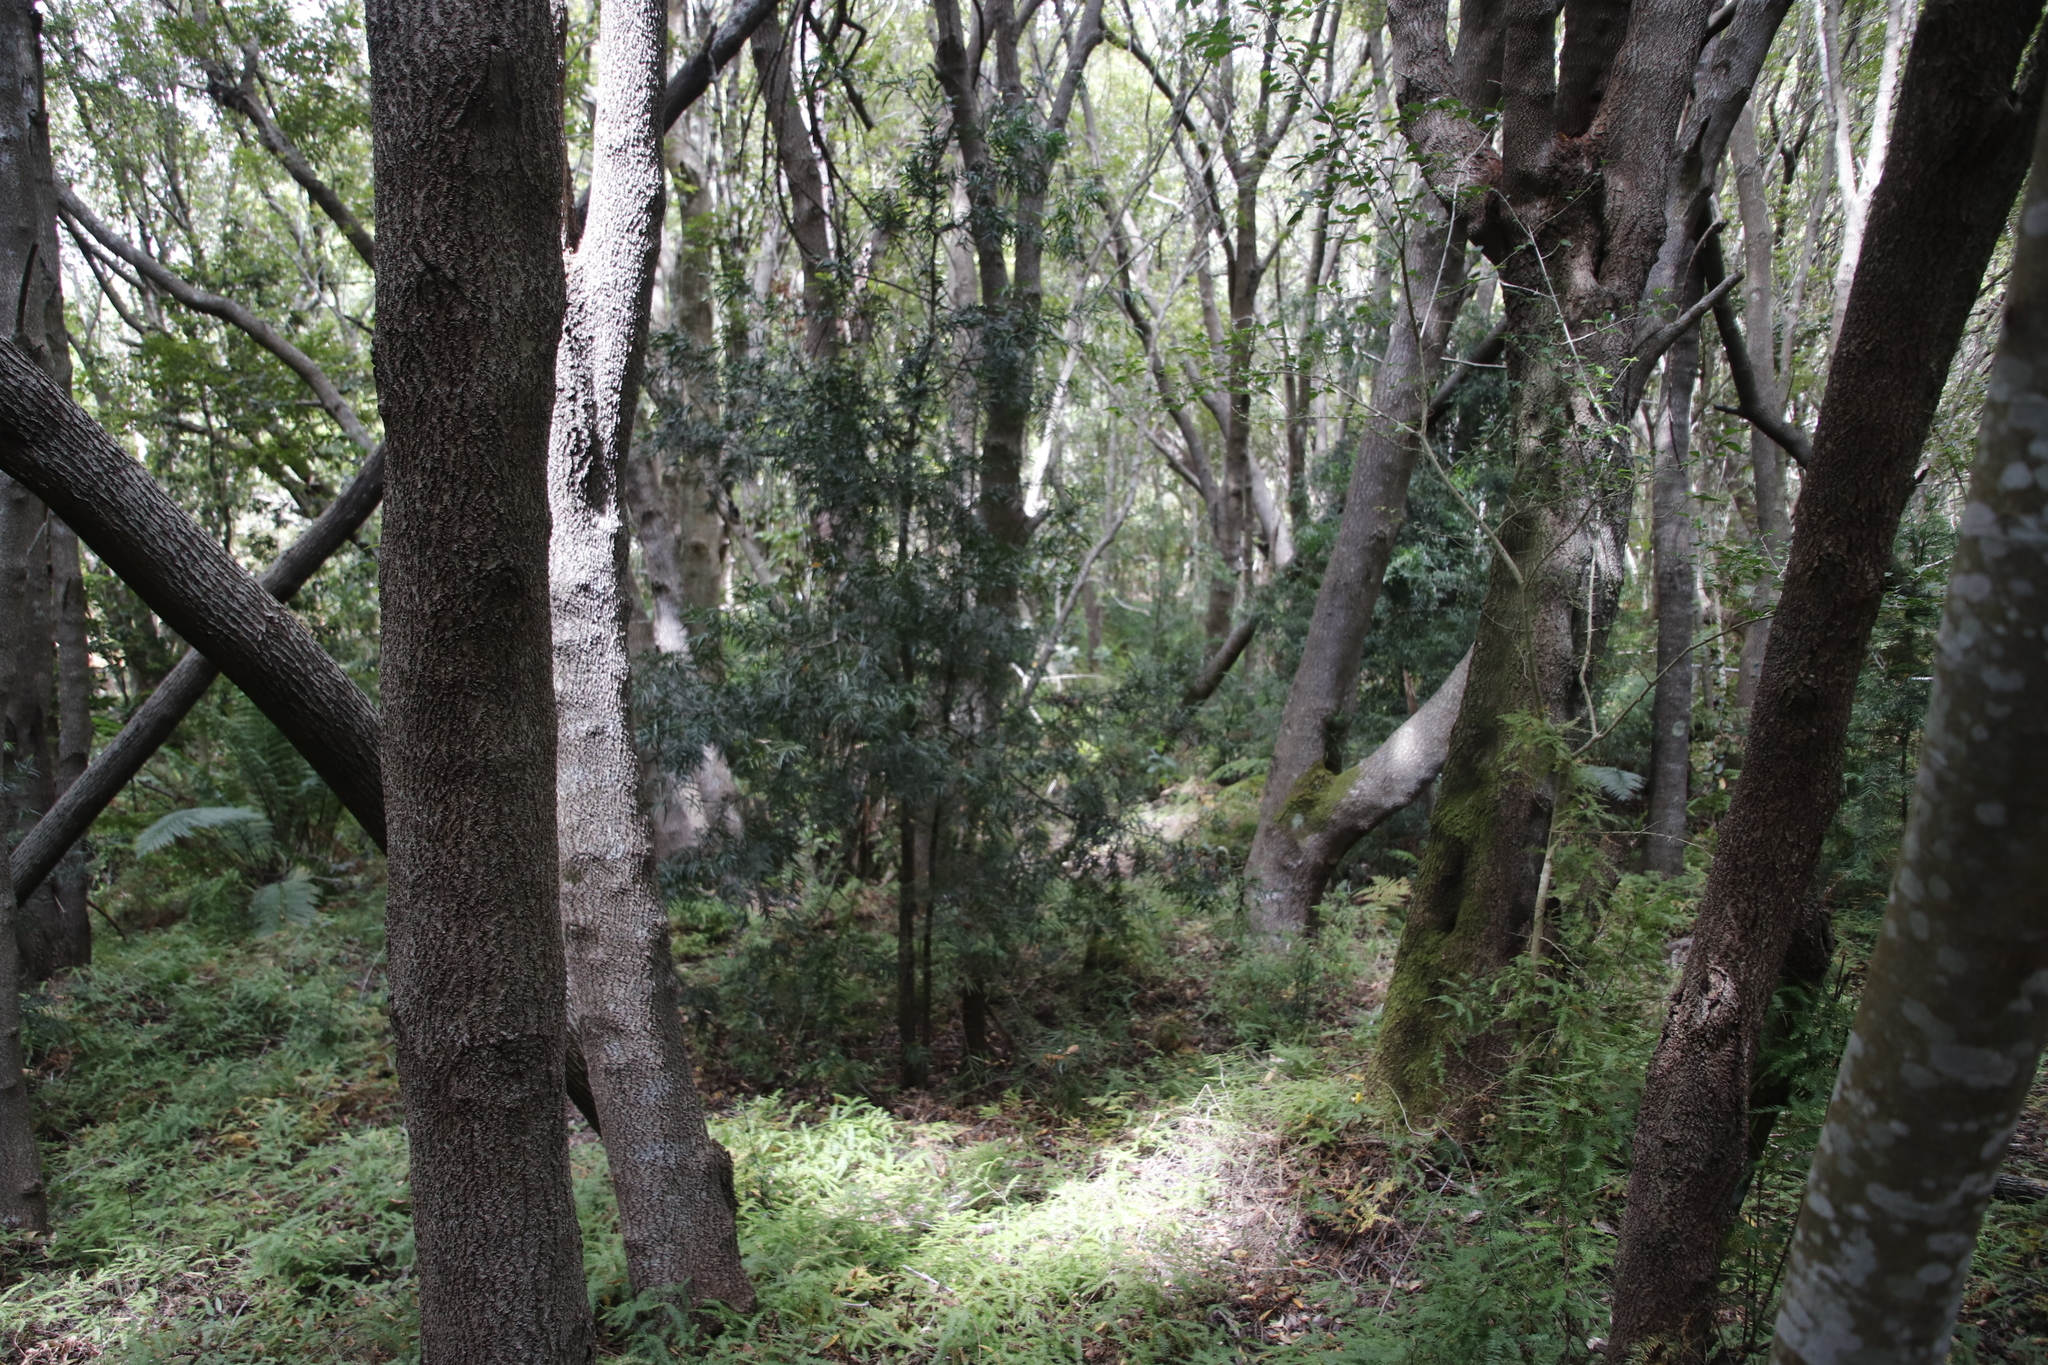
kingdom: Plantae
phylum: Tracheophyta
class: Liliopsida
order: Asparagales
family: Asparagaceae
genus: Asparagus
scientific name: Asparagus scandens
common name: Asparagus-fern
